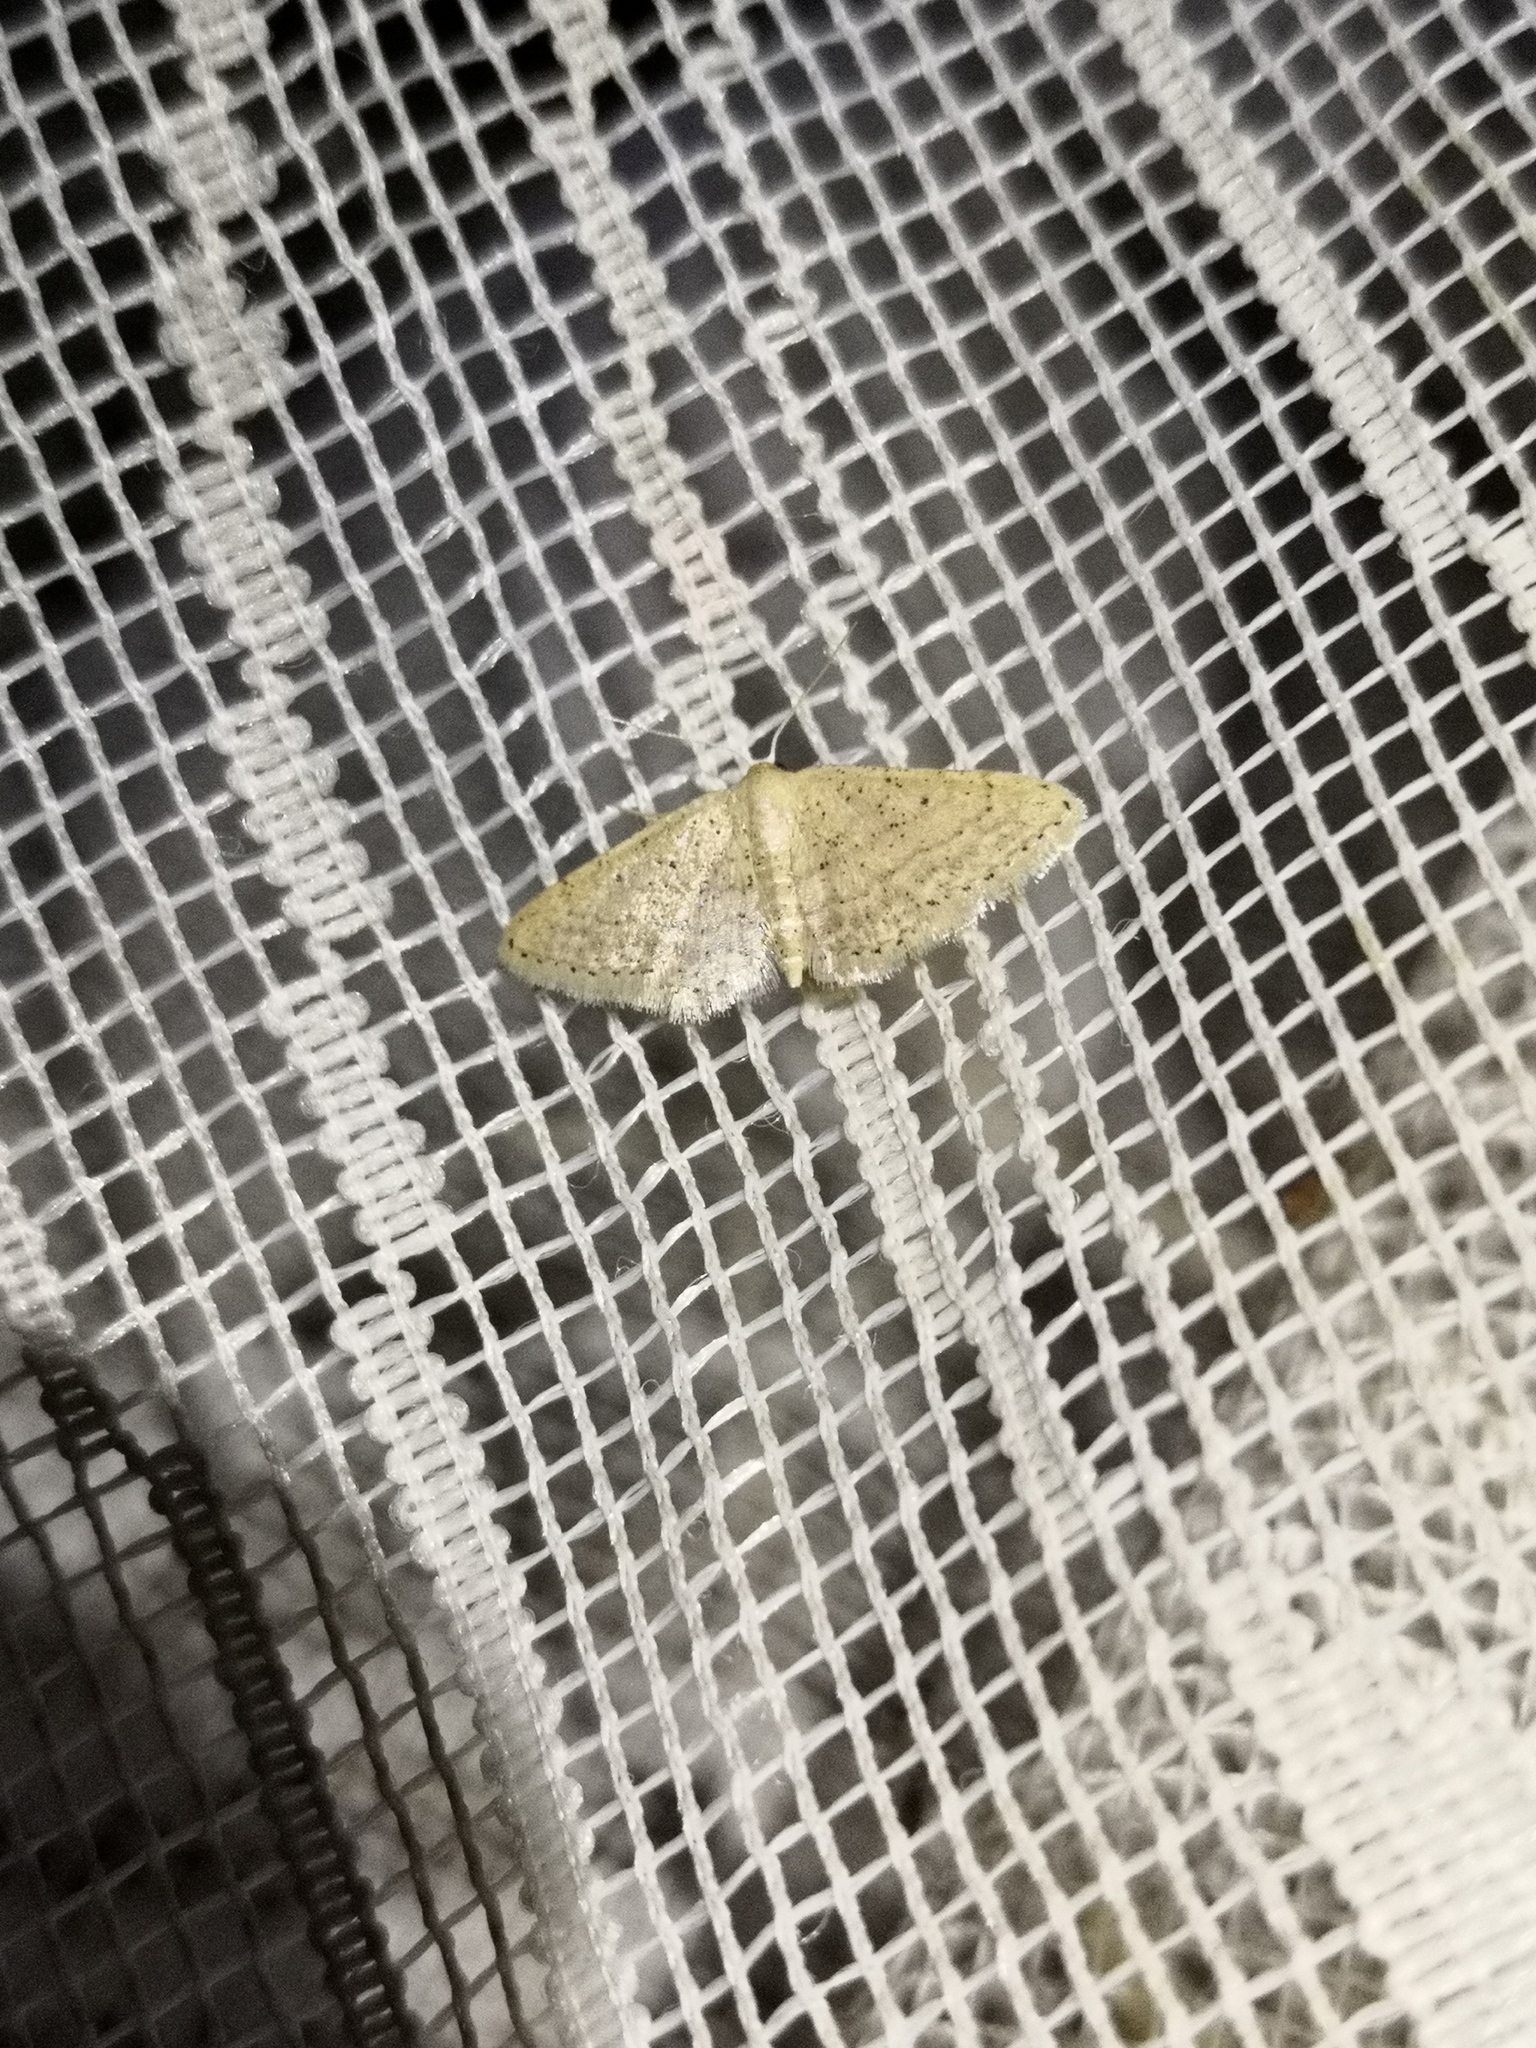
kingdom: Animalia
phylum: Arthropoda
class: Insecta
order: Lepidoptera
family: Geometridae
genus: Idaea
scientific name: Idaea elongaria
